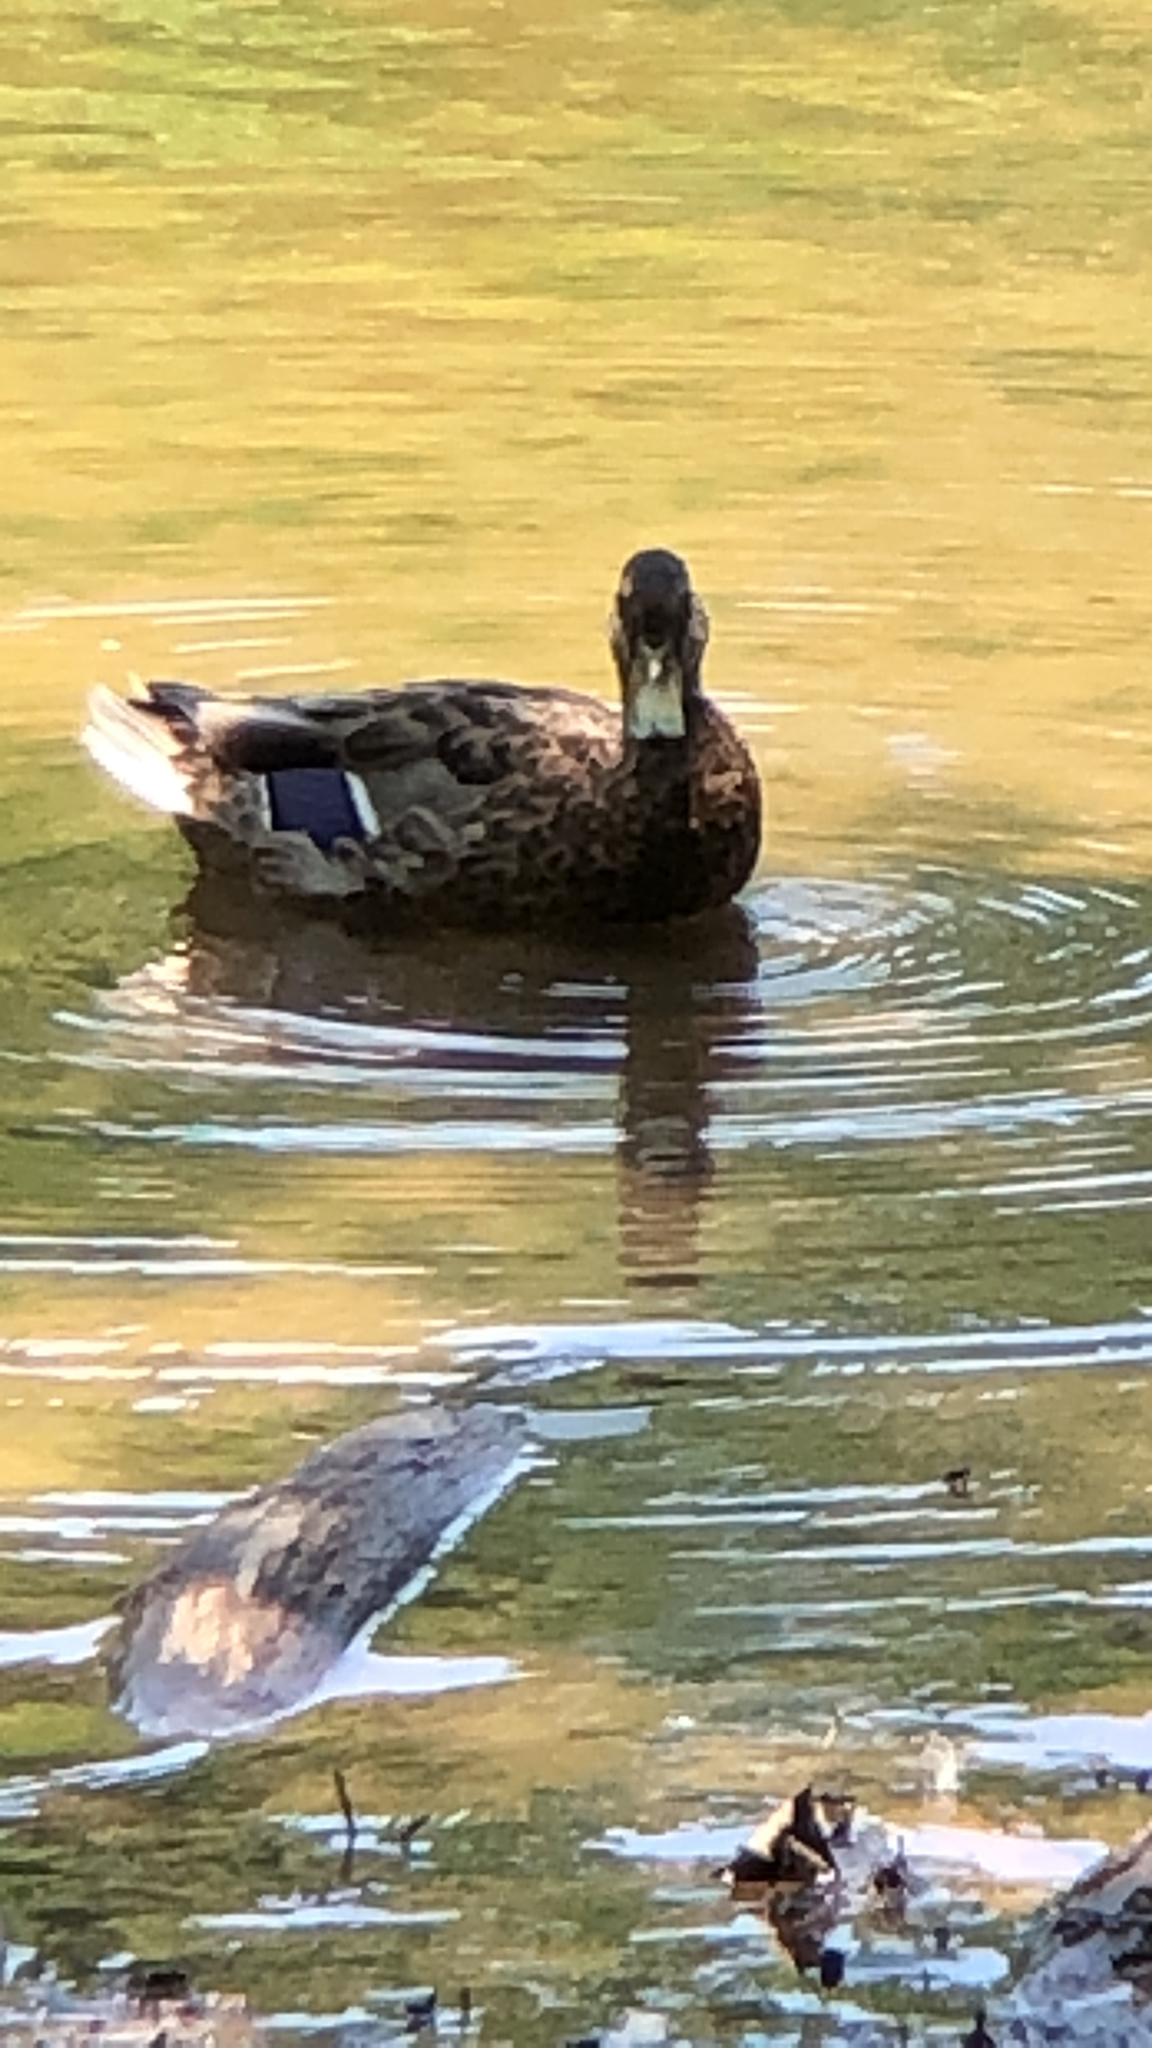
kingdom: Animalia
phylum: Chordata
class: Aves
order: Anseriformes
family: Anatidae
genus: Anas
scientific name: Anas platyrhynchos
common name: Mallard
